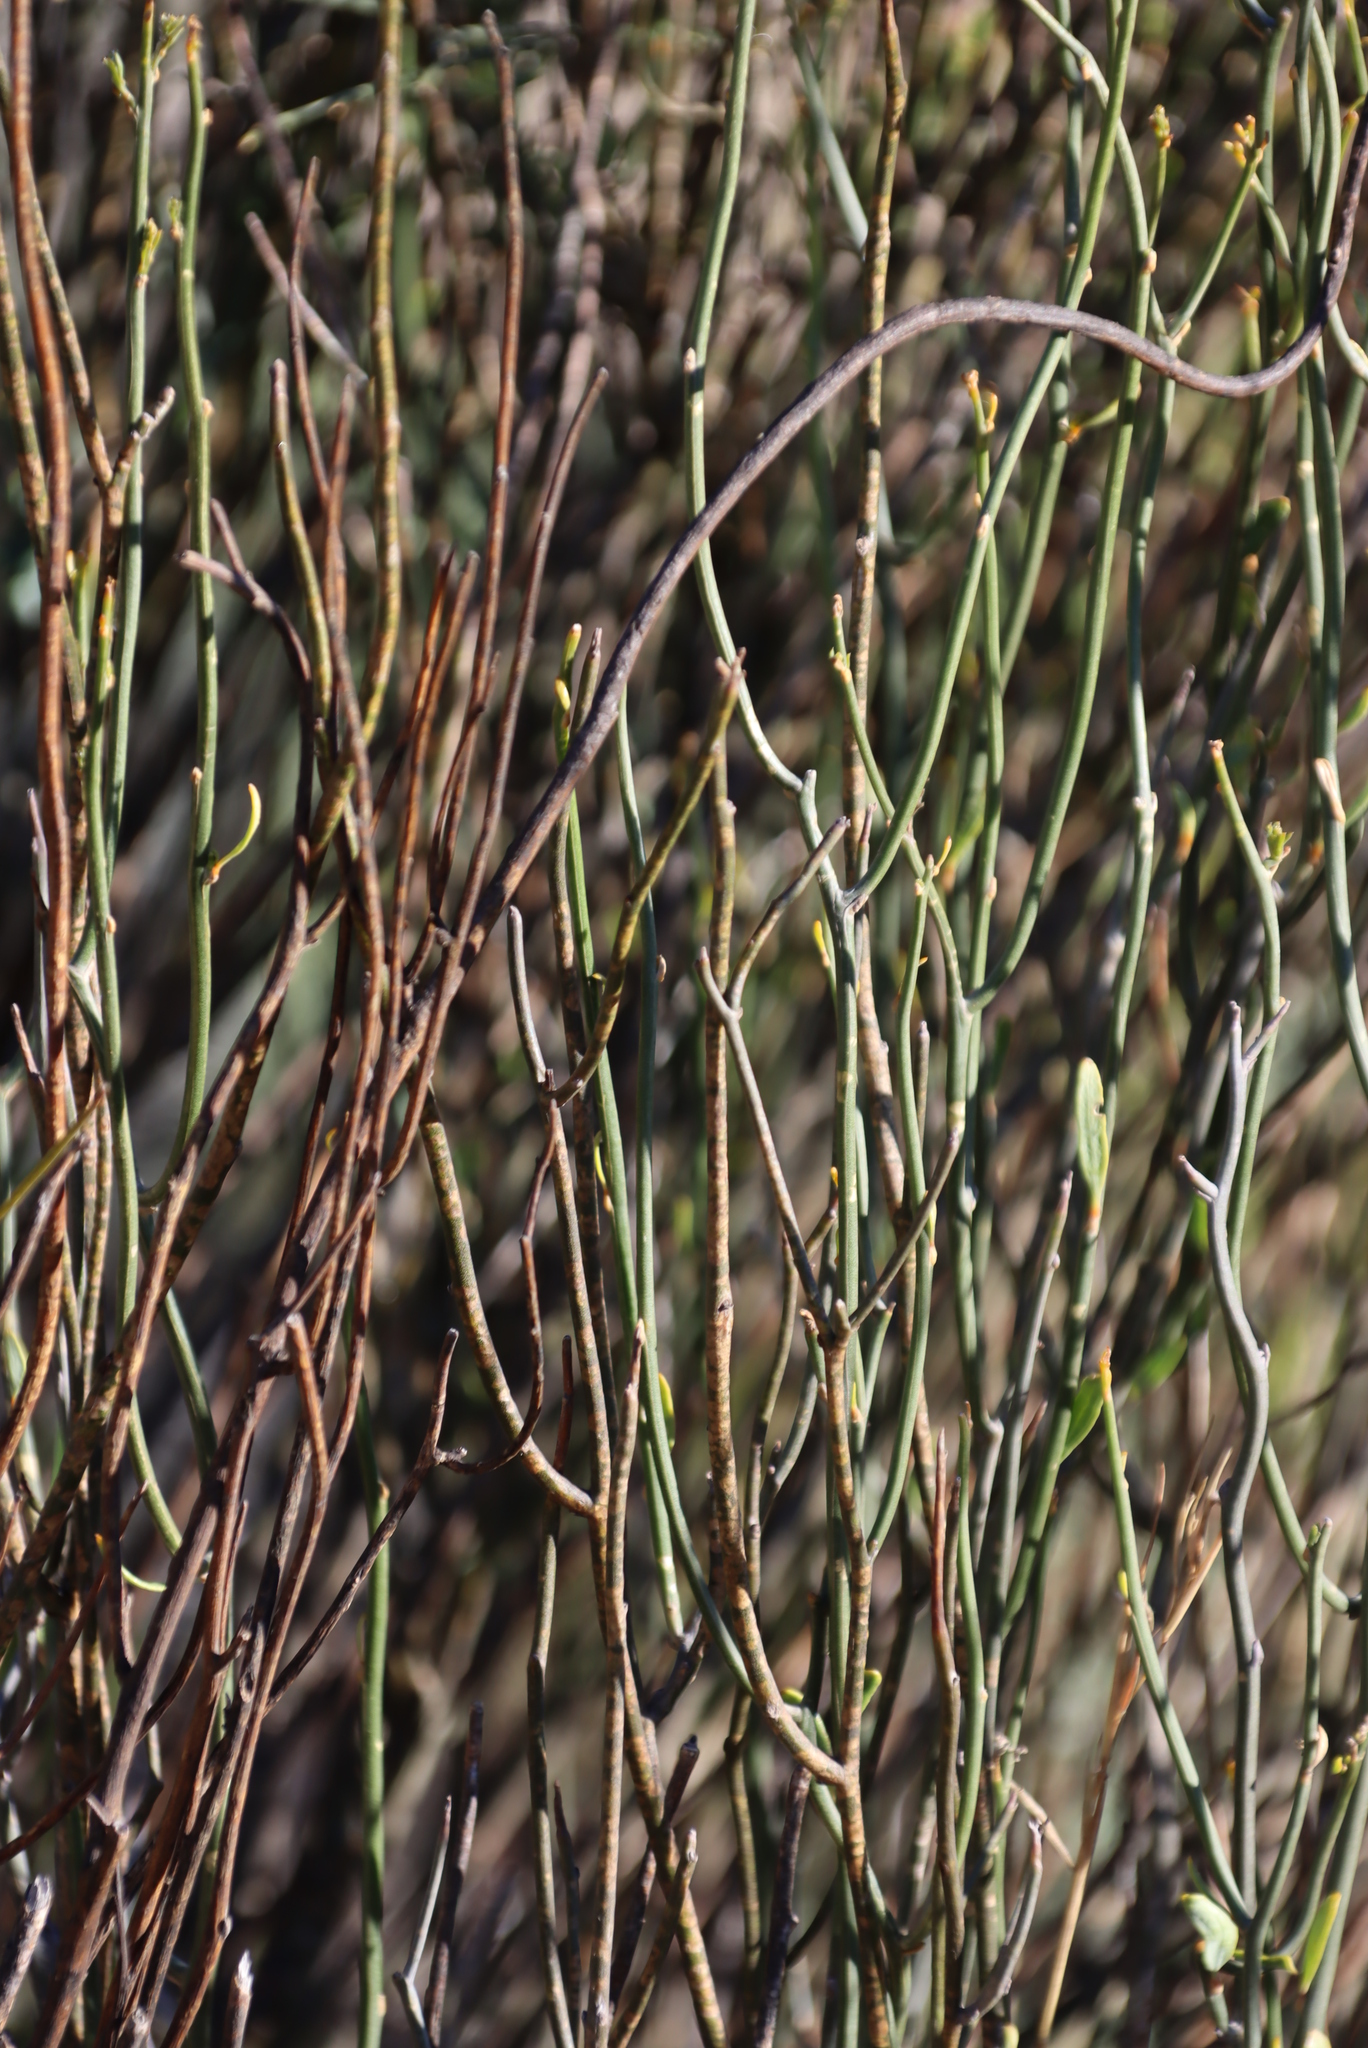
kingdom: Plantae
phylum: Tracheophyta
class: Magnoliopsida
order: Solanales
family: Montiniaceae
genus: Montinia
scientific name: Montinia caryophyllacea
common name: Wild clove-bush
